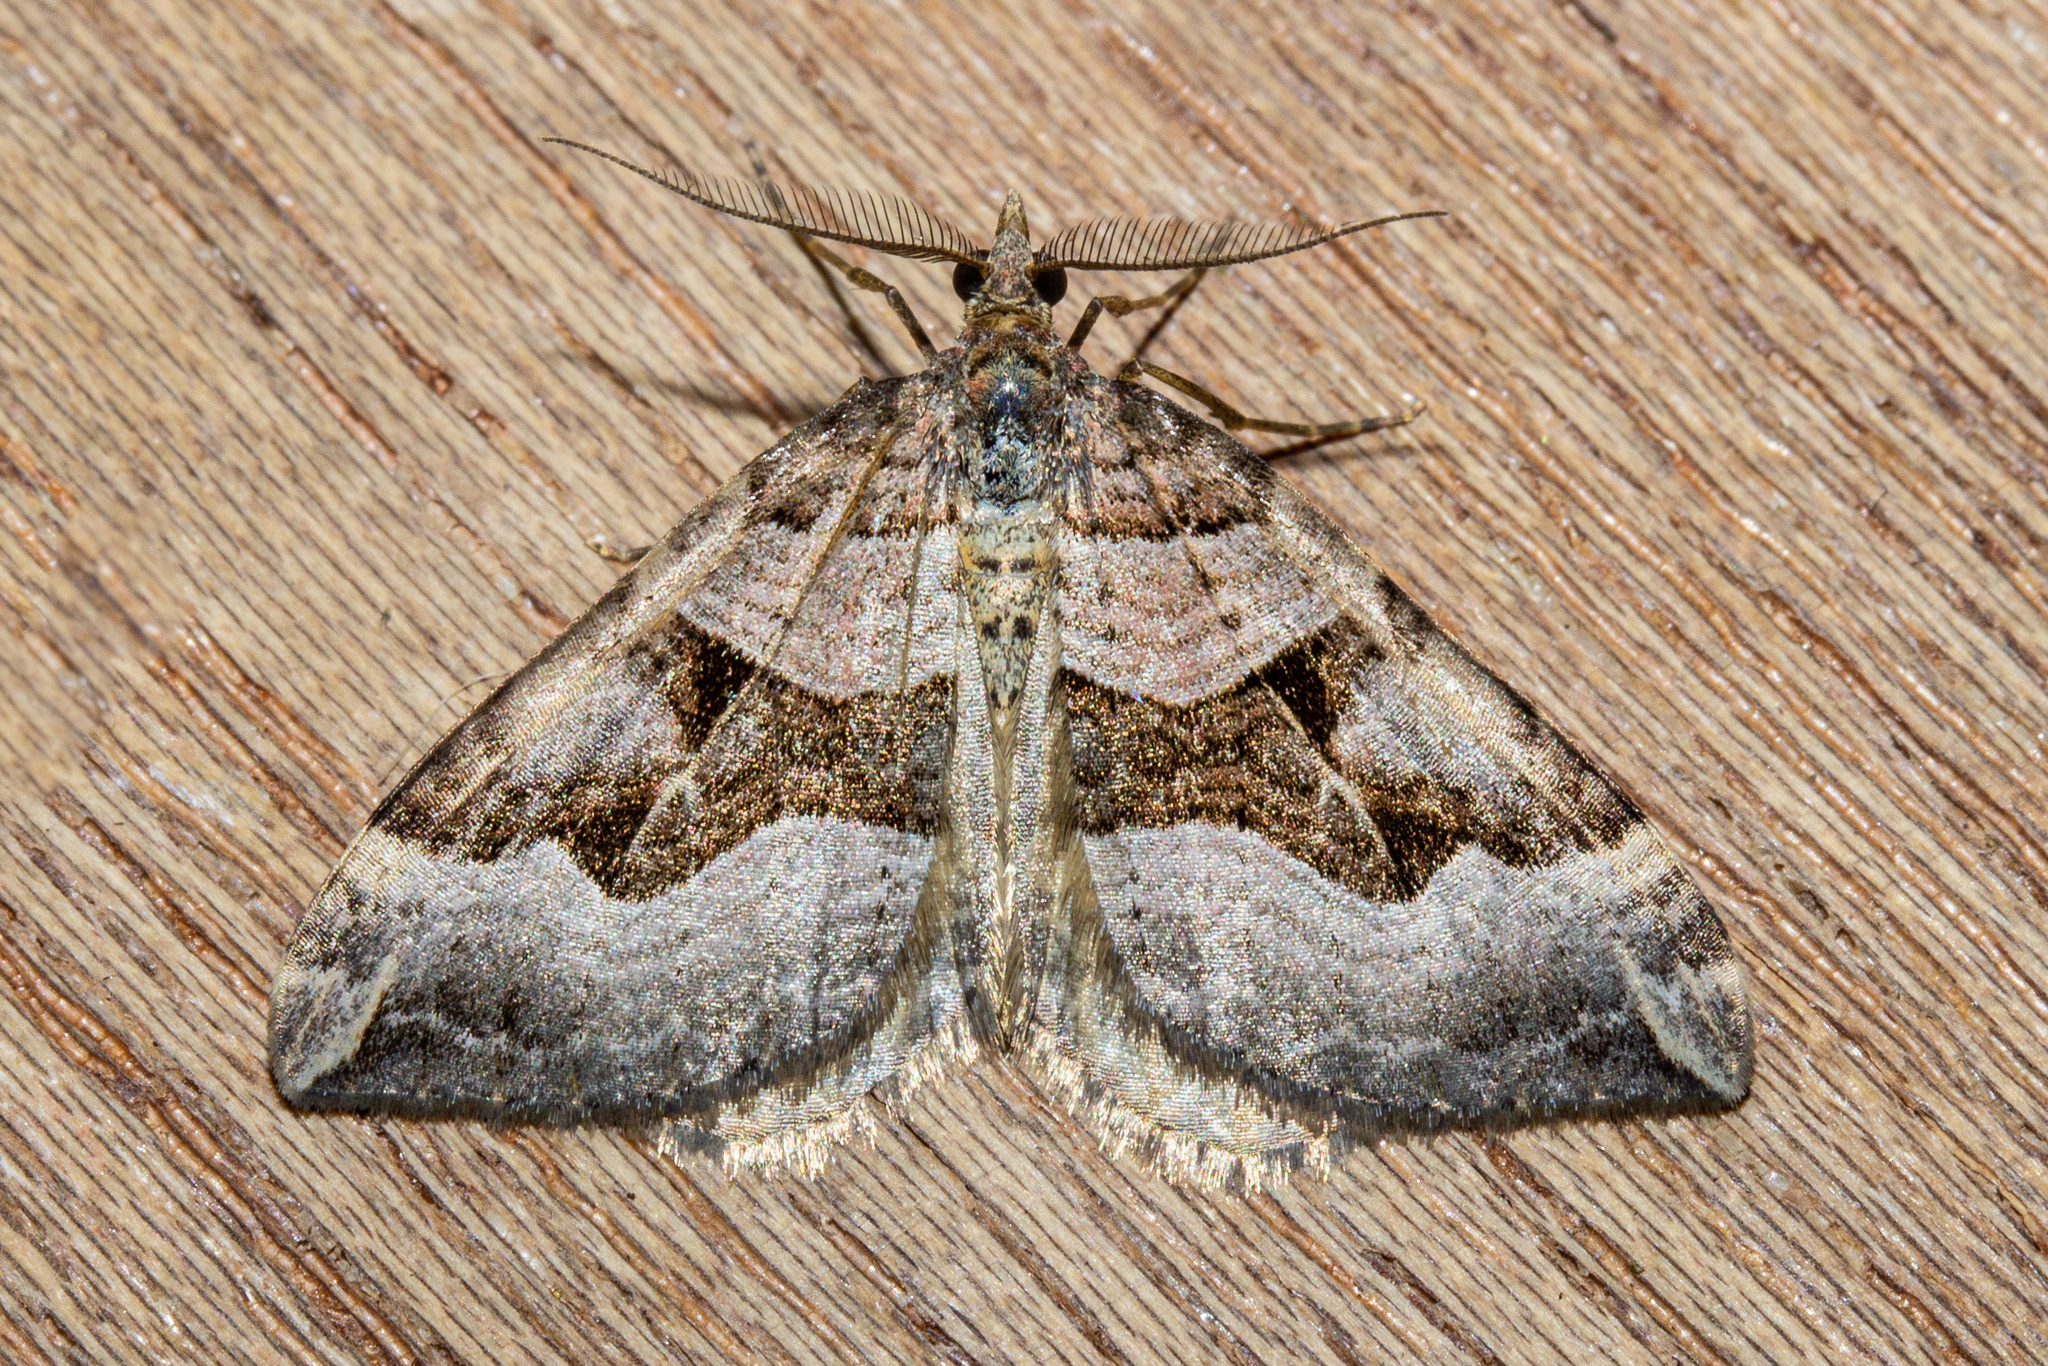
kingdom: Animalia
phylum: Arthropoda
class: Insecta
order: Lepidoptera
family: Geometridae
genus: Xanthorhoe
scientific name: Xanthorhoe semifissata
